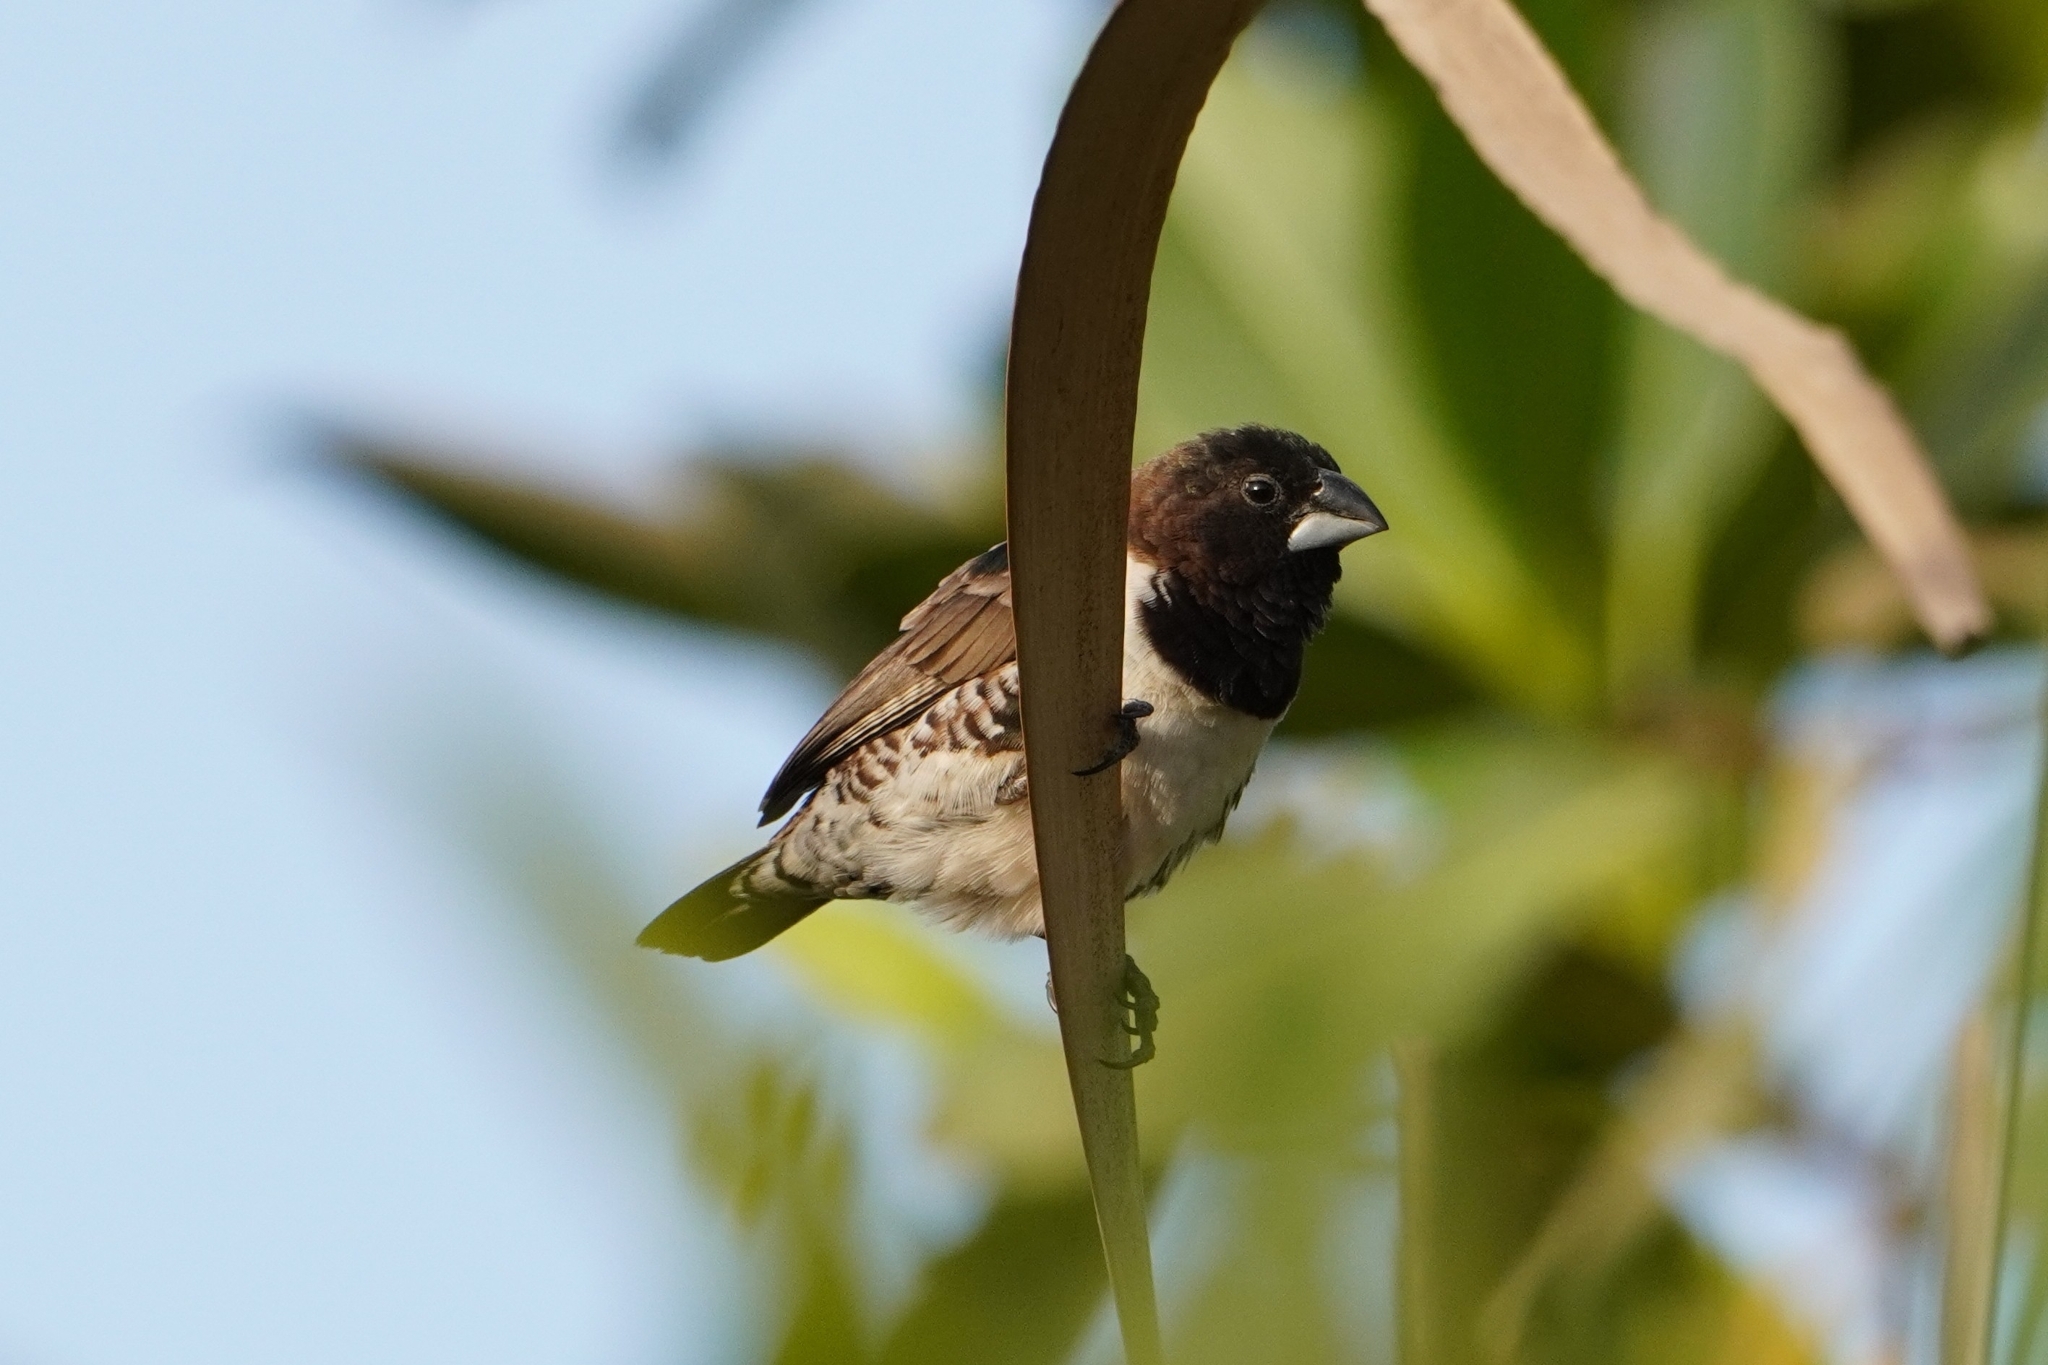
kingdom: Animalia
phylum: Chordata
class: Aves
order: Passeriformes
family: Estrildidae
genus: Lonchura
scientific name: Lonchura cucullata
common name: Bronze mannikin
